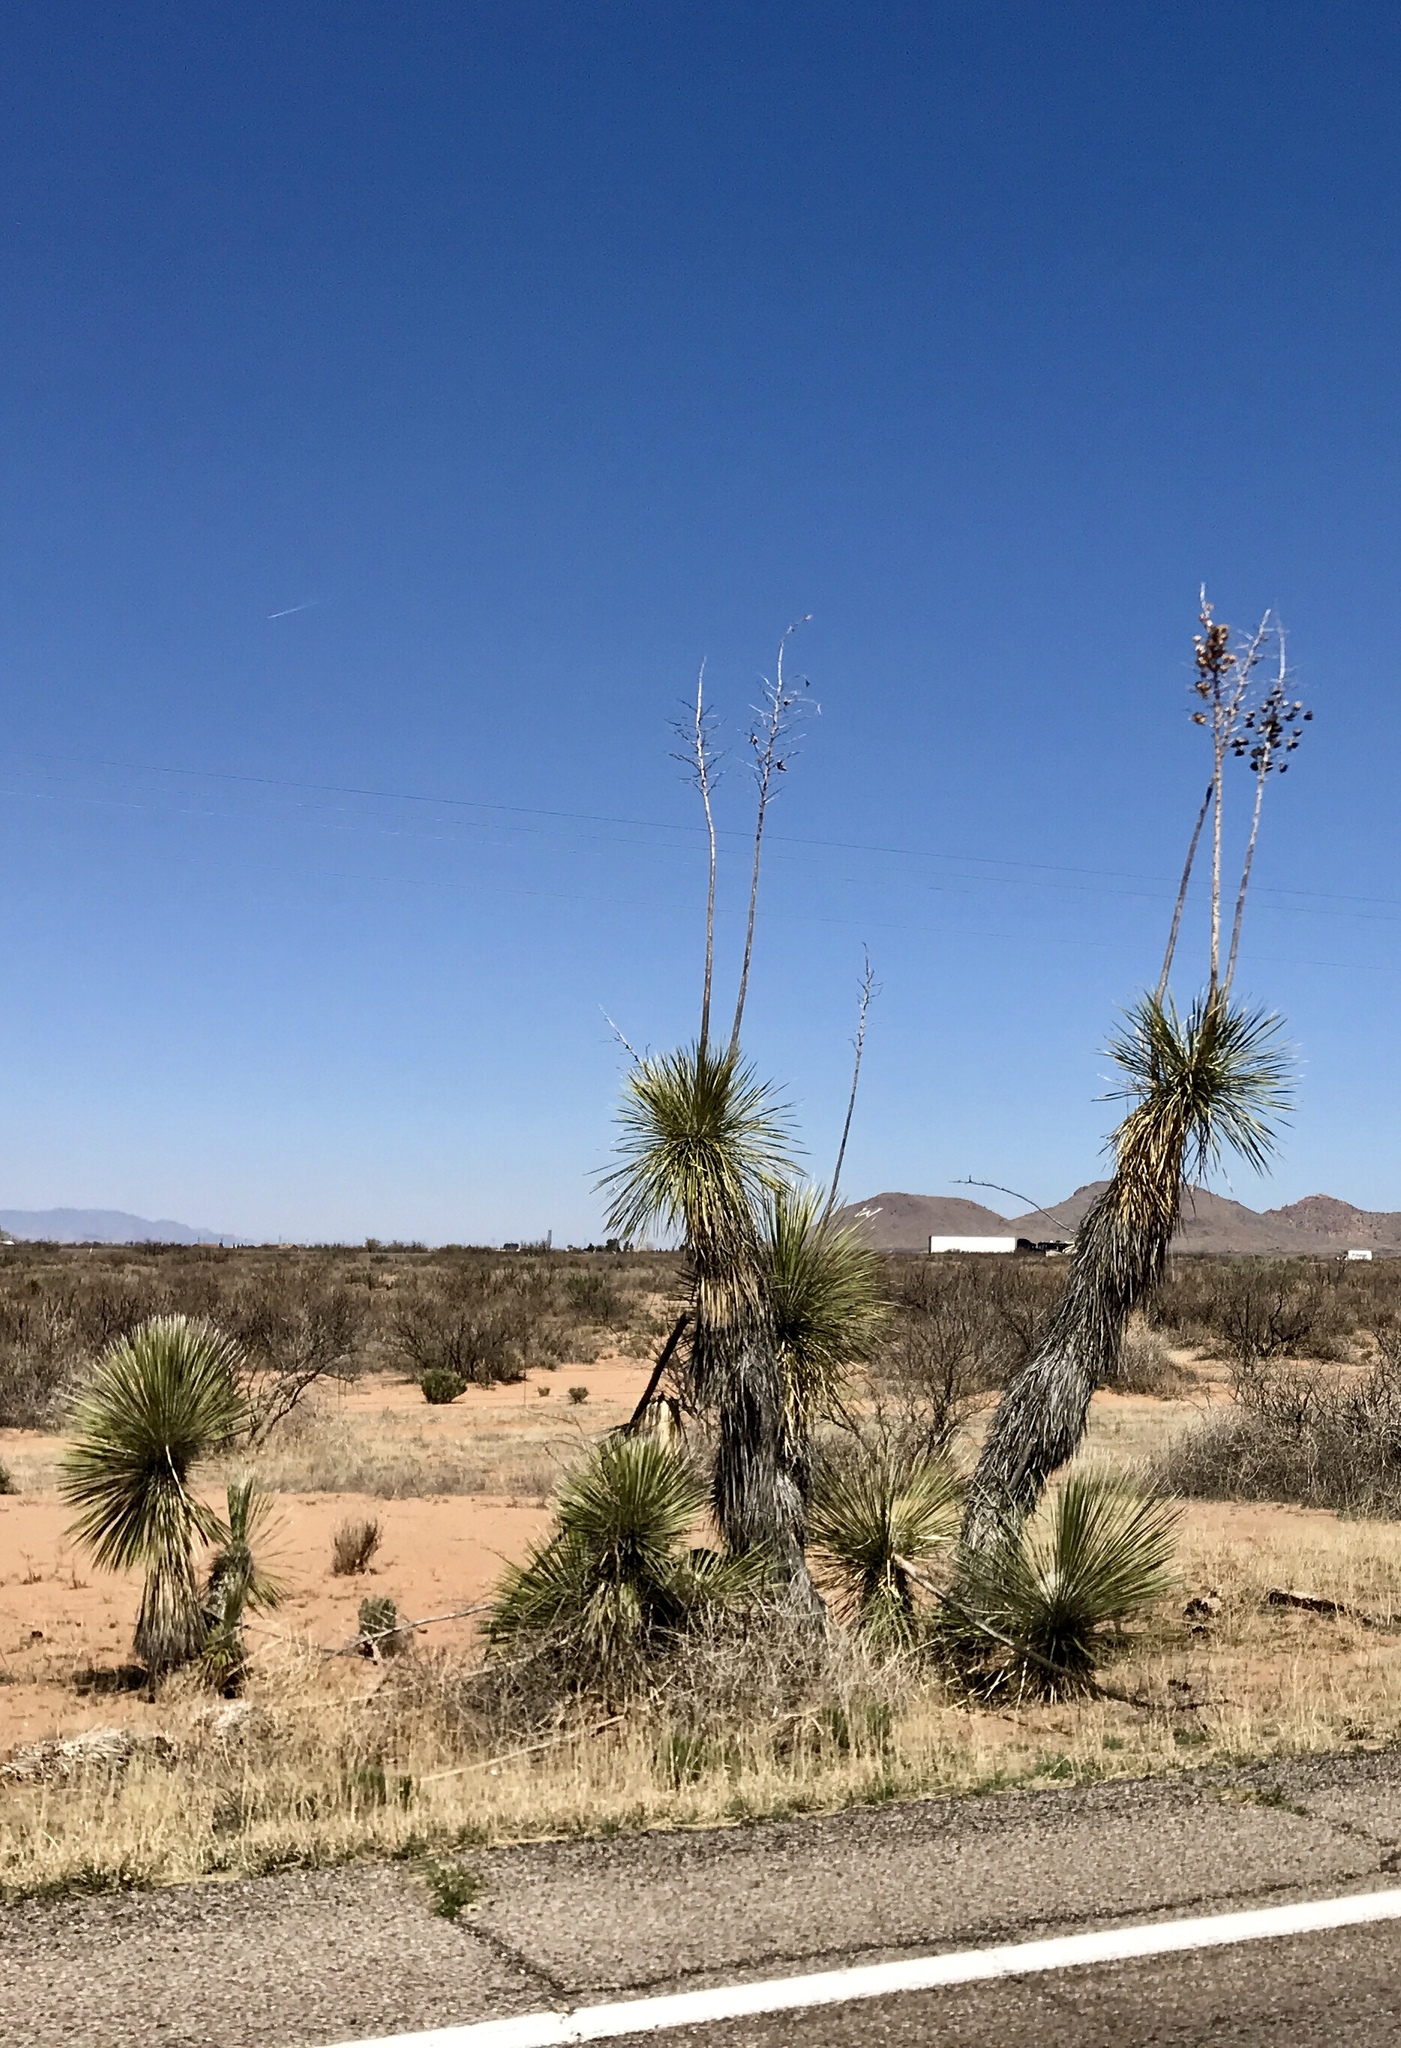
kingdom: Plantae
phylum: Tracheophyta
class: Liliopsida
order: Asparagales
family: Asparagaceae
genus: Yucca
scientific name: Yucca elata
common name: Palmella
